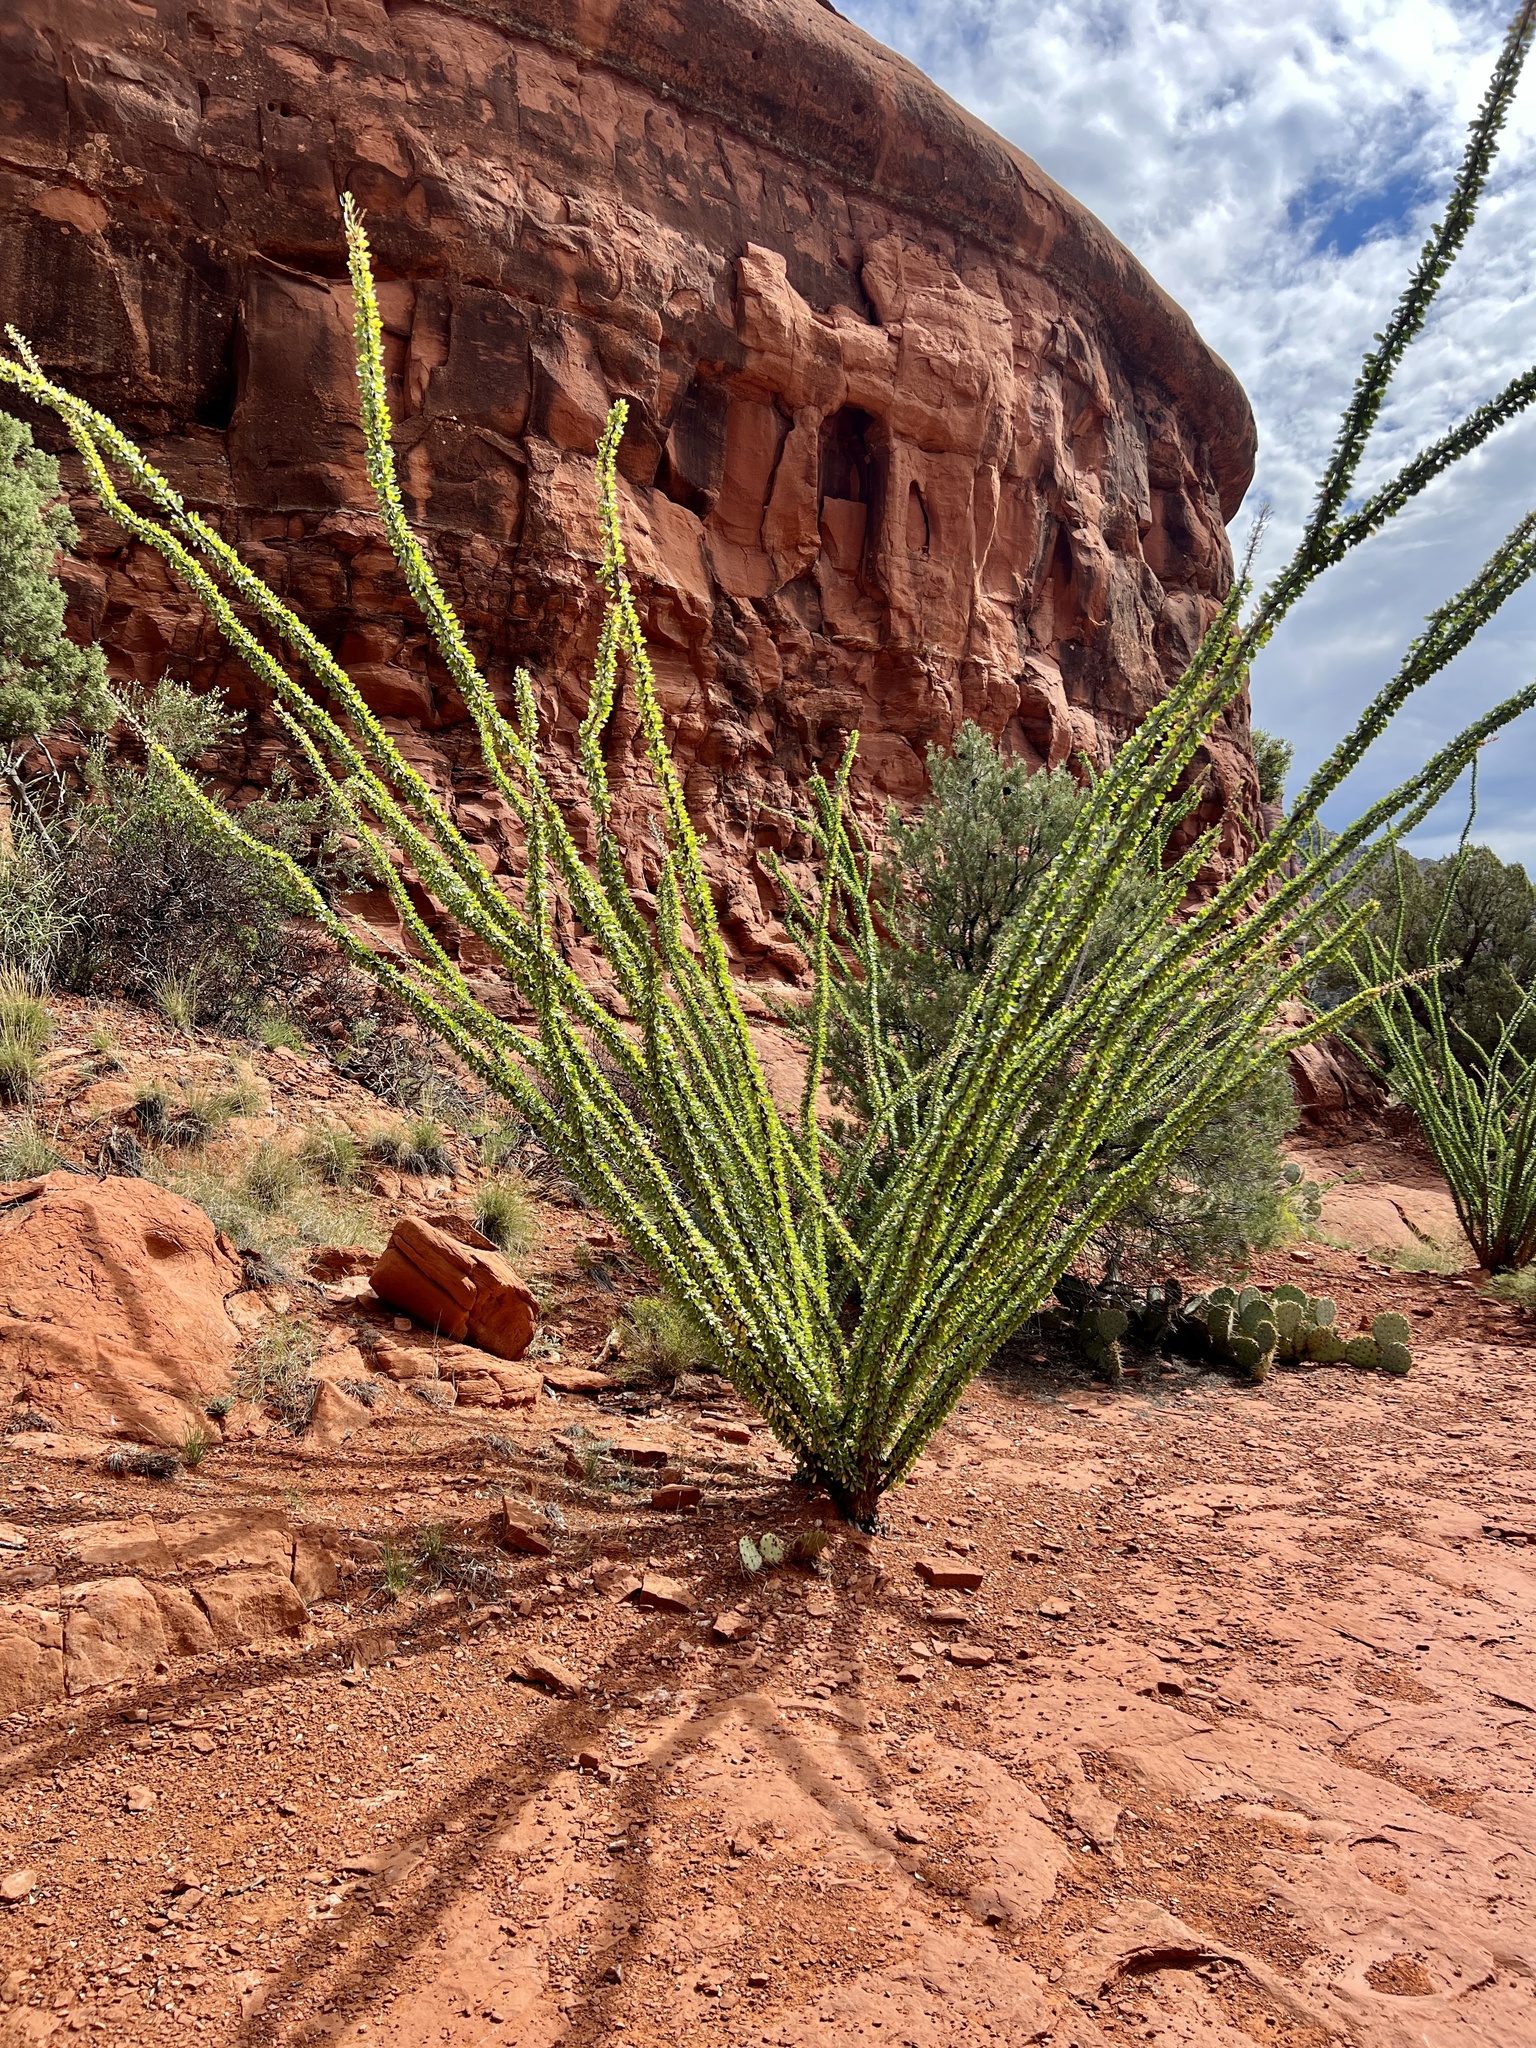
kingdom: Plantae
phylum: Tracheophyta
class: Magnoliopsida
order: Ericales
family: Fouquieriaceae
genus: Fouquieria
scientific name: Fouquieria splendens
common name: Vine-cactus
